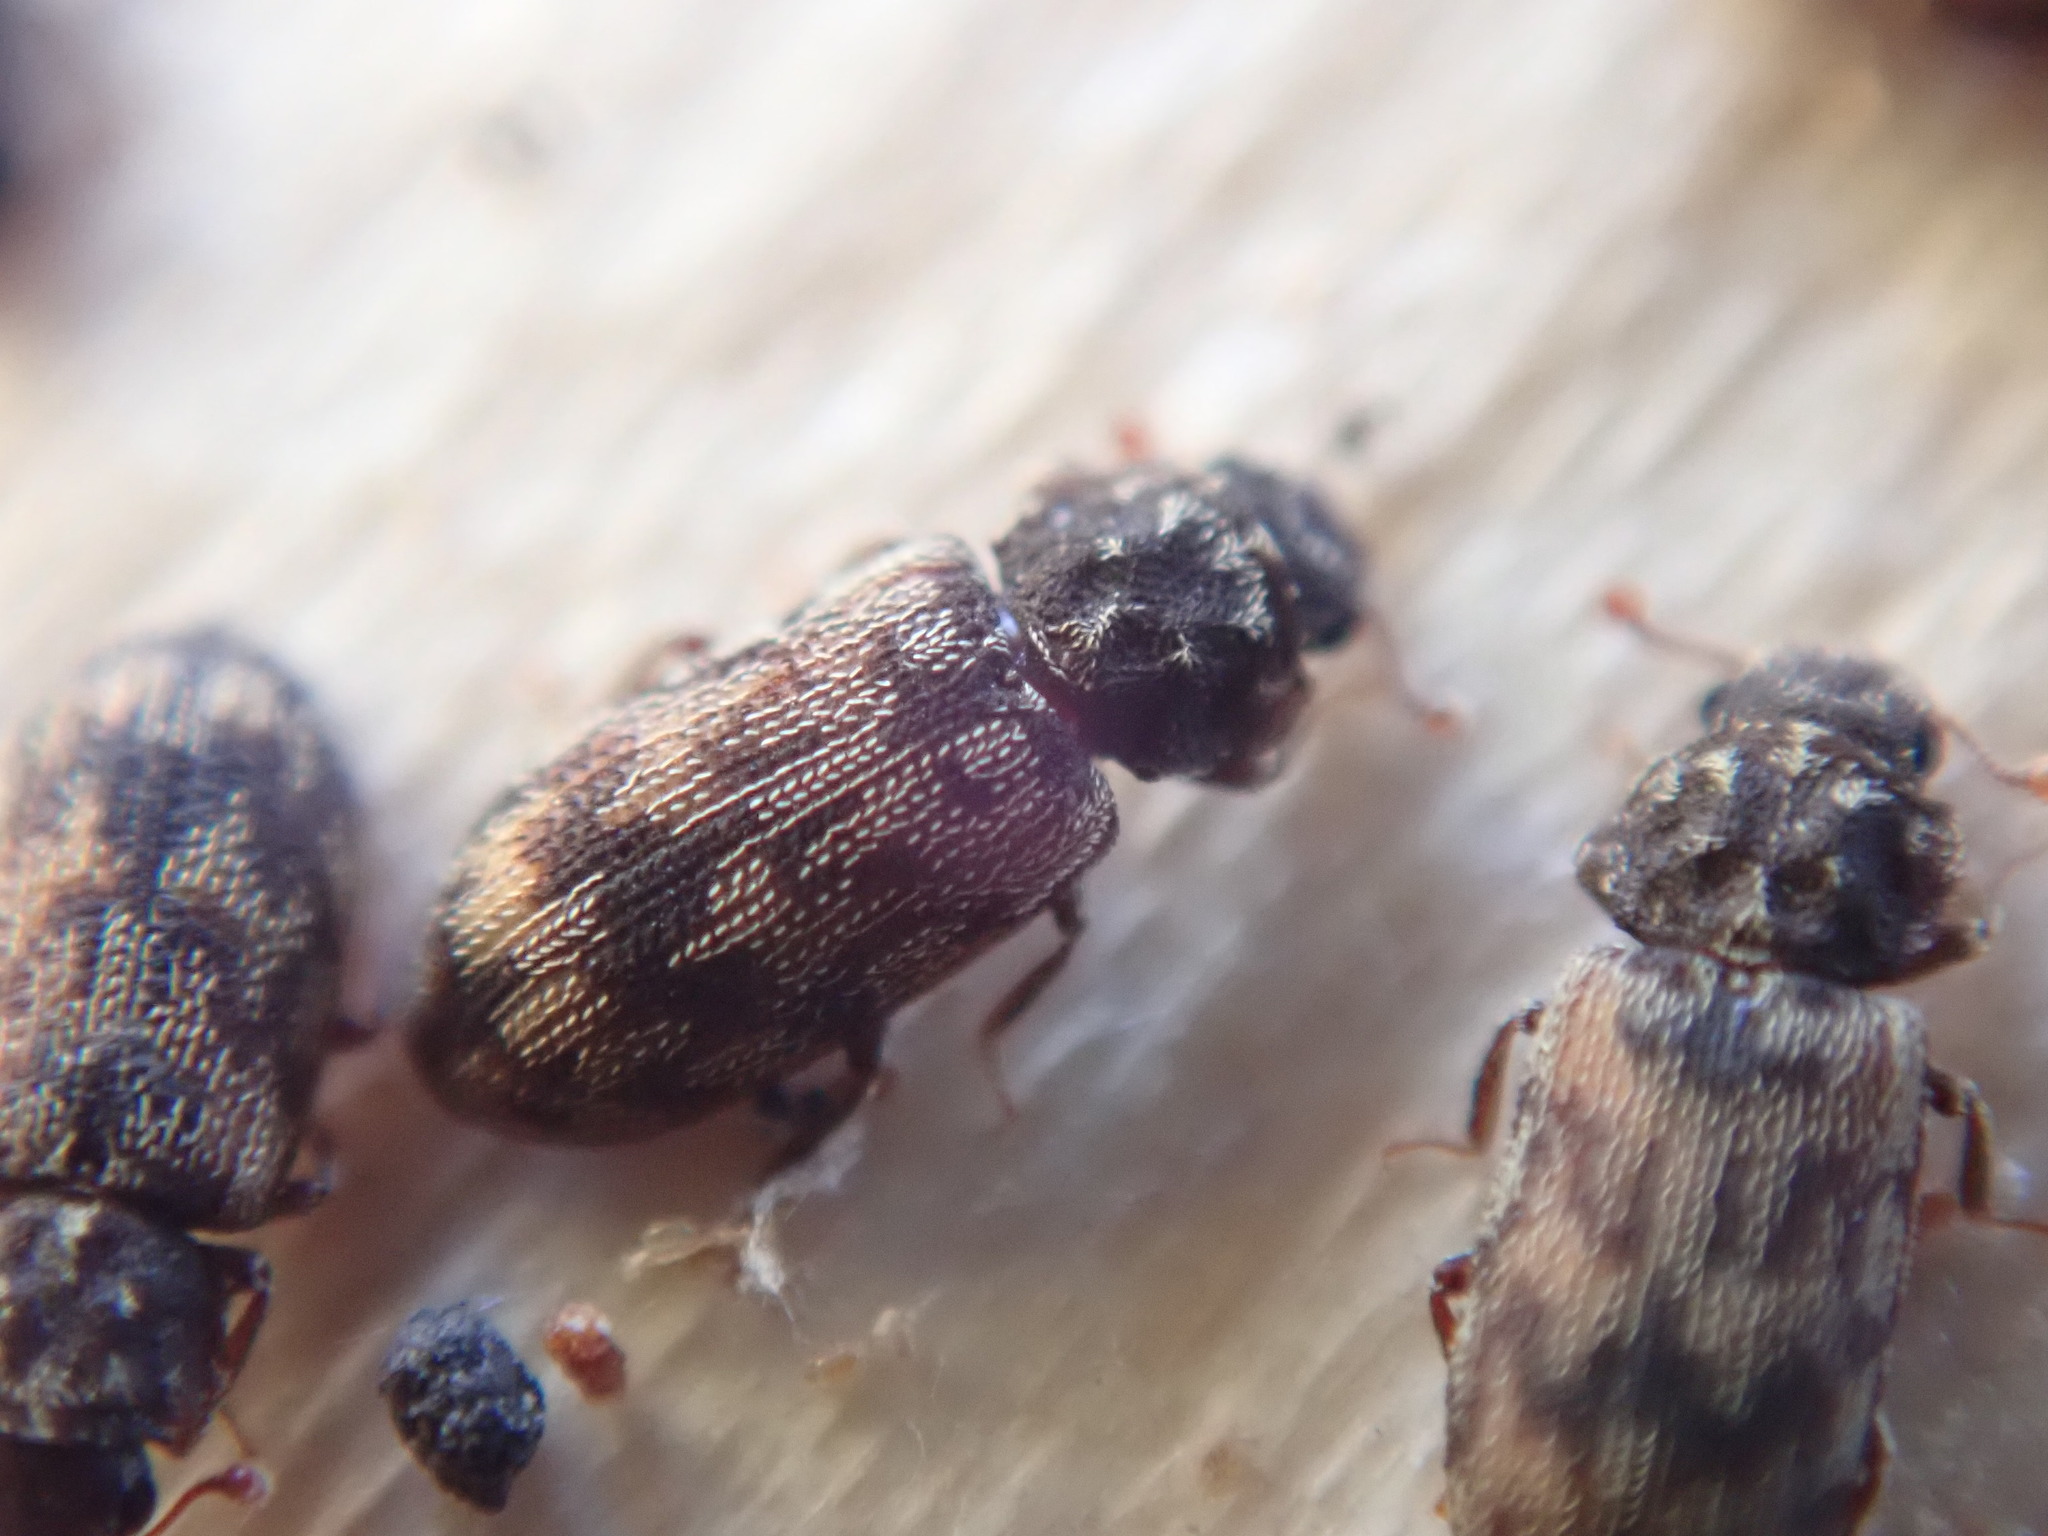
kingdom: Animalia
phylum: Arthropoda
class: Insecta
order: Coleoptera
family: Zopheridae
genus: Synchita
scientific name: Synchita undata
